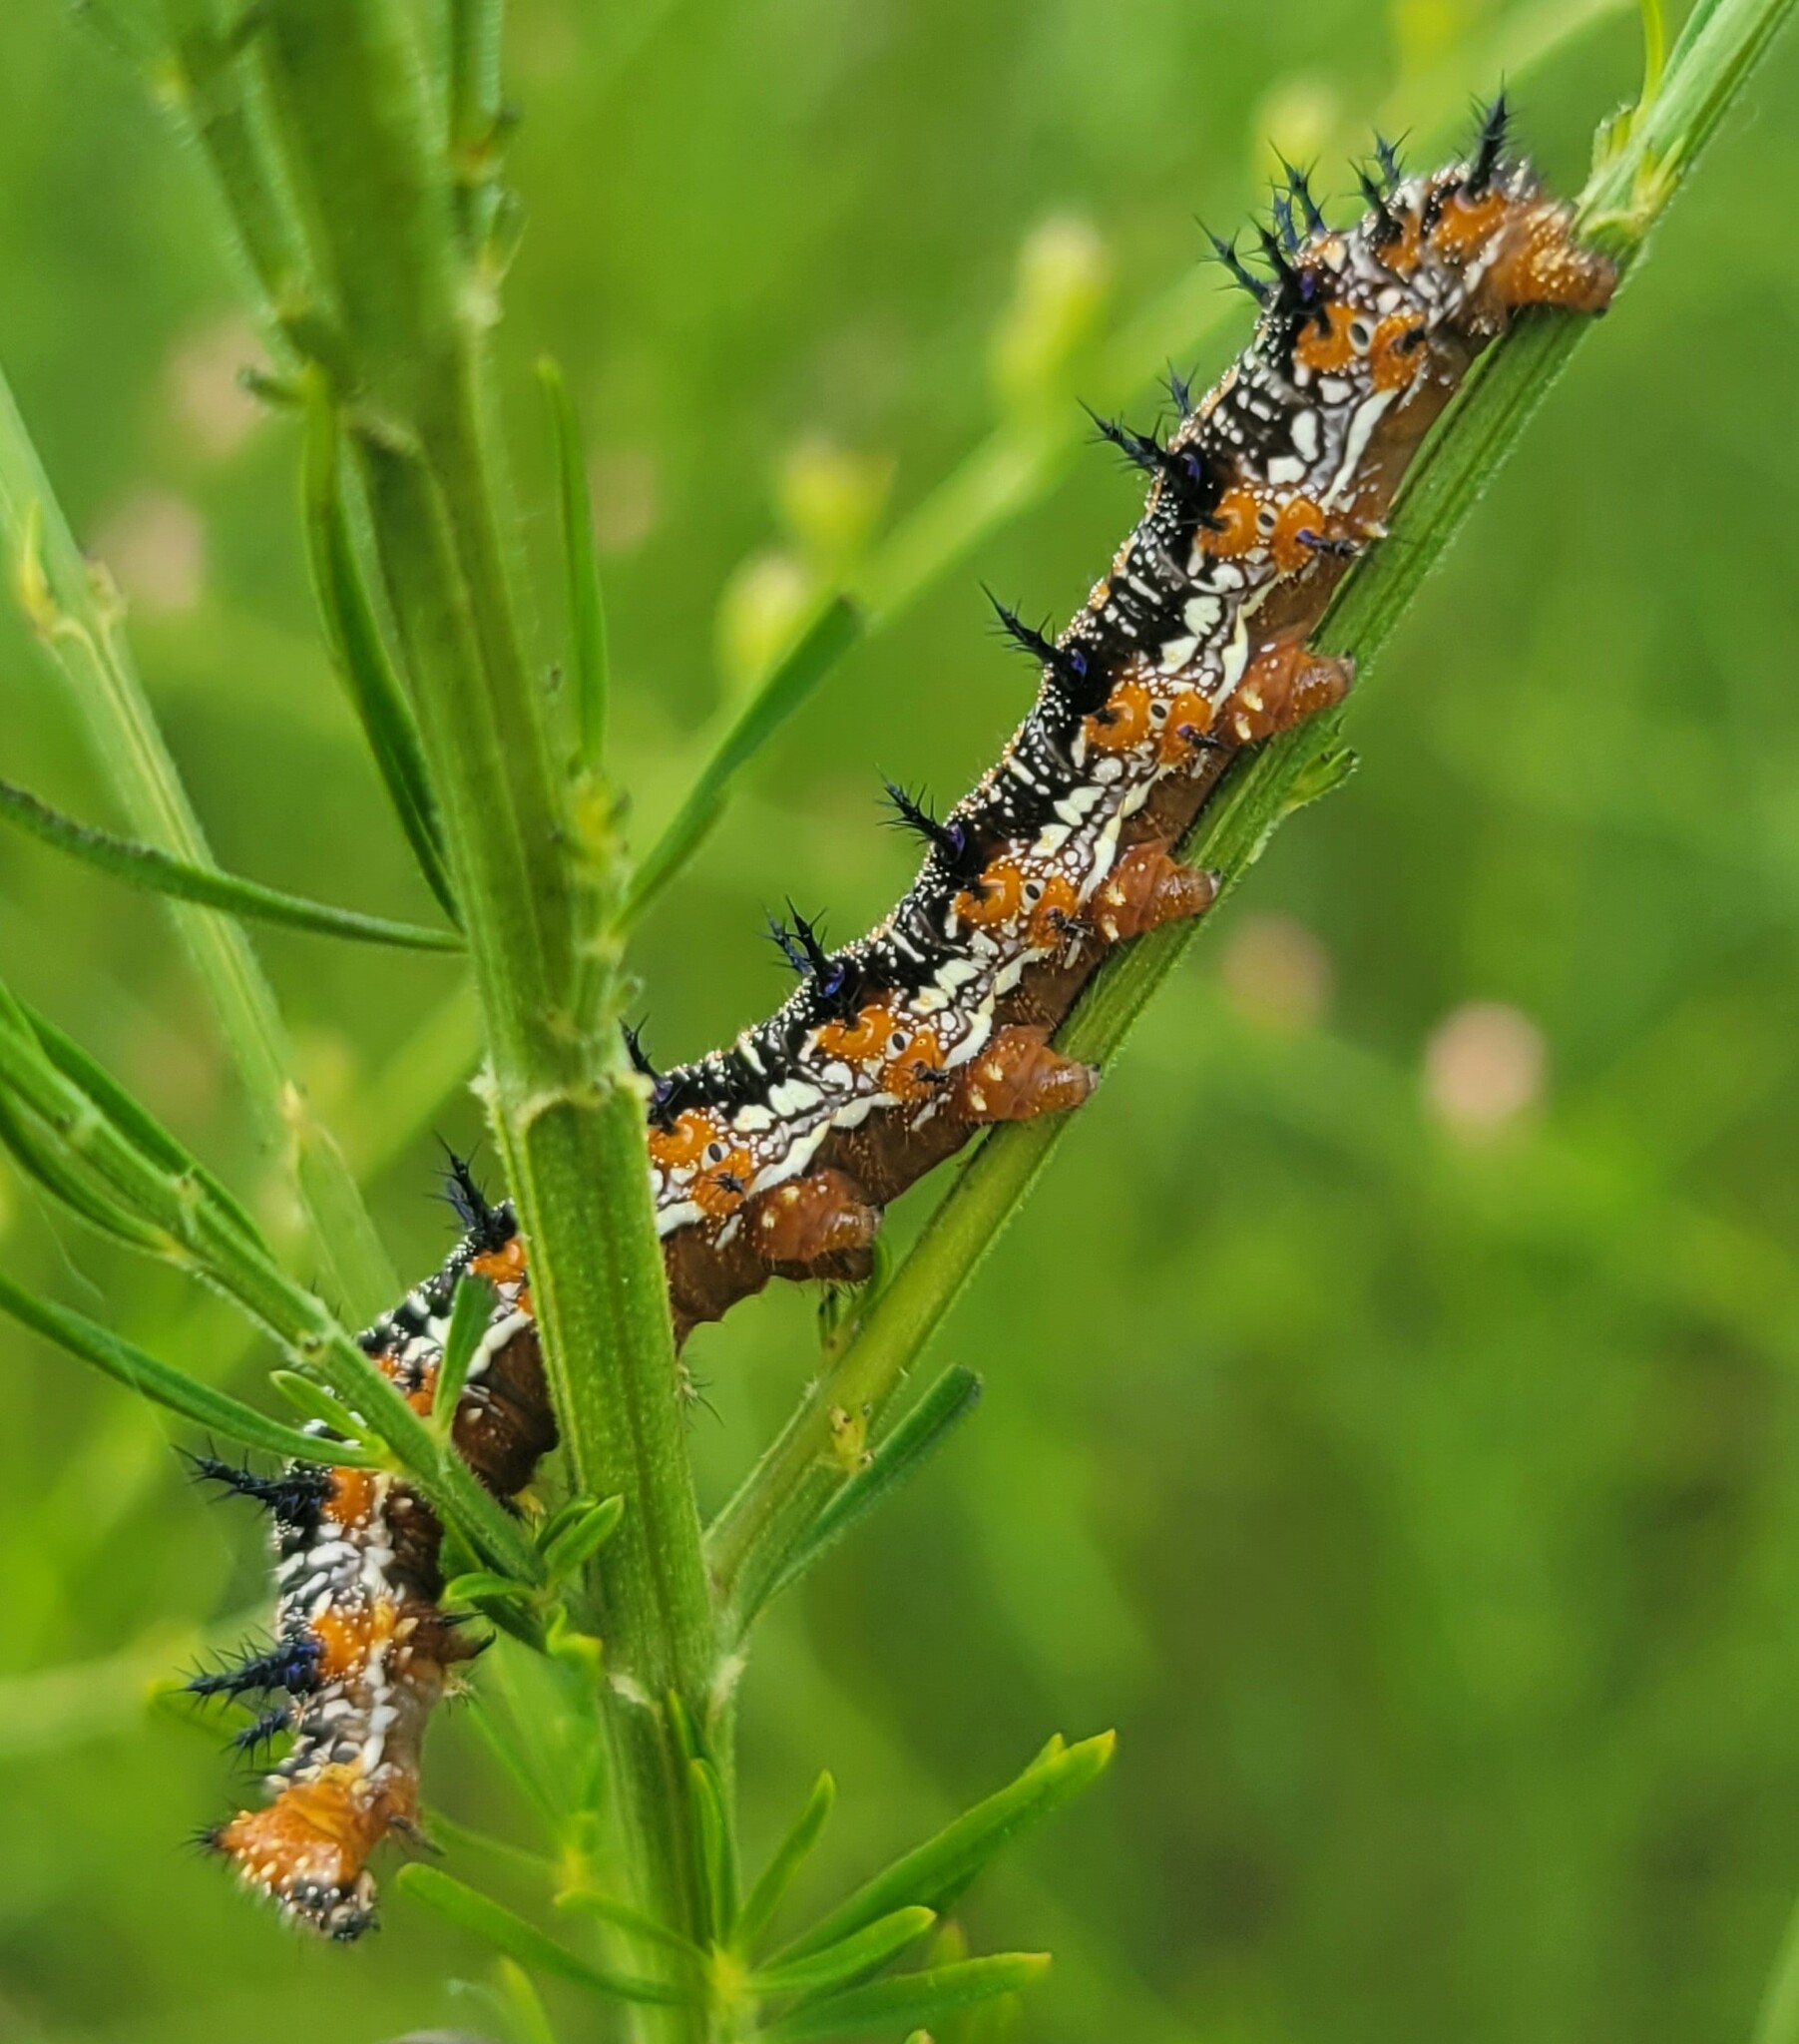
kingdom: Animalia
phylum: Arthropoda
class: Insecta
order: Lepidoptera
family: Nymphalidae
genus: Junonia
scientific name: Junonia coenia
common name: Common buckeye
